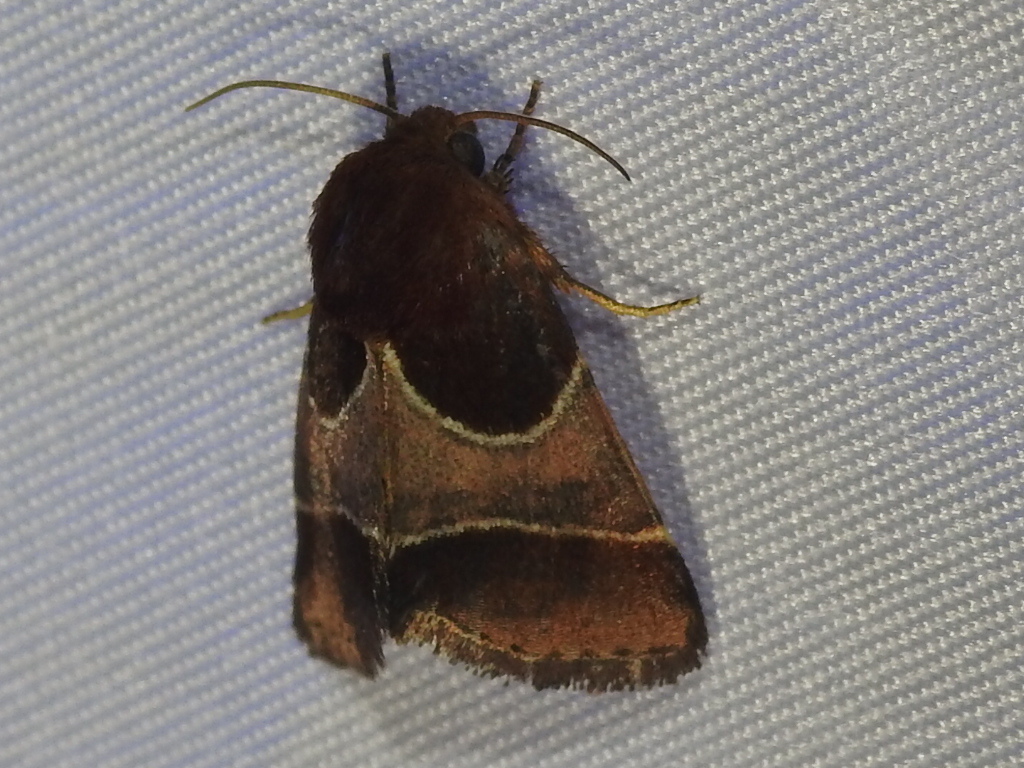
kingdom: Animalia
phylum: Arthropoda
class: Insecta
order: Lepidoptera
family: Noctuidae
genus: Schinia
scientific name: Schinia arcigera
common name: Arcigera flower moth
